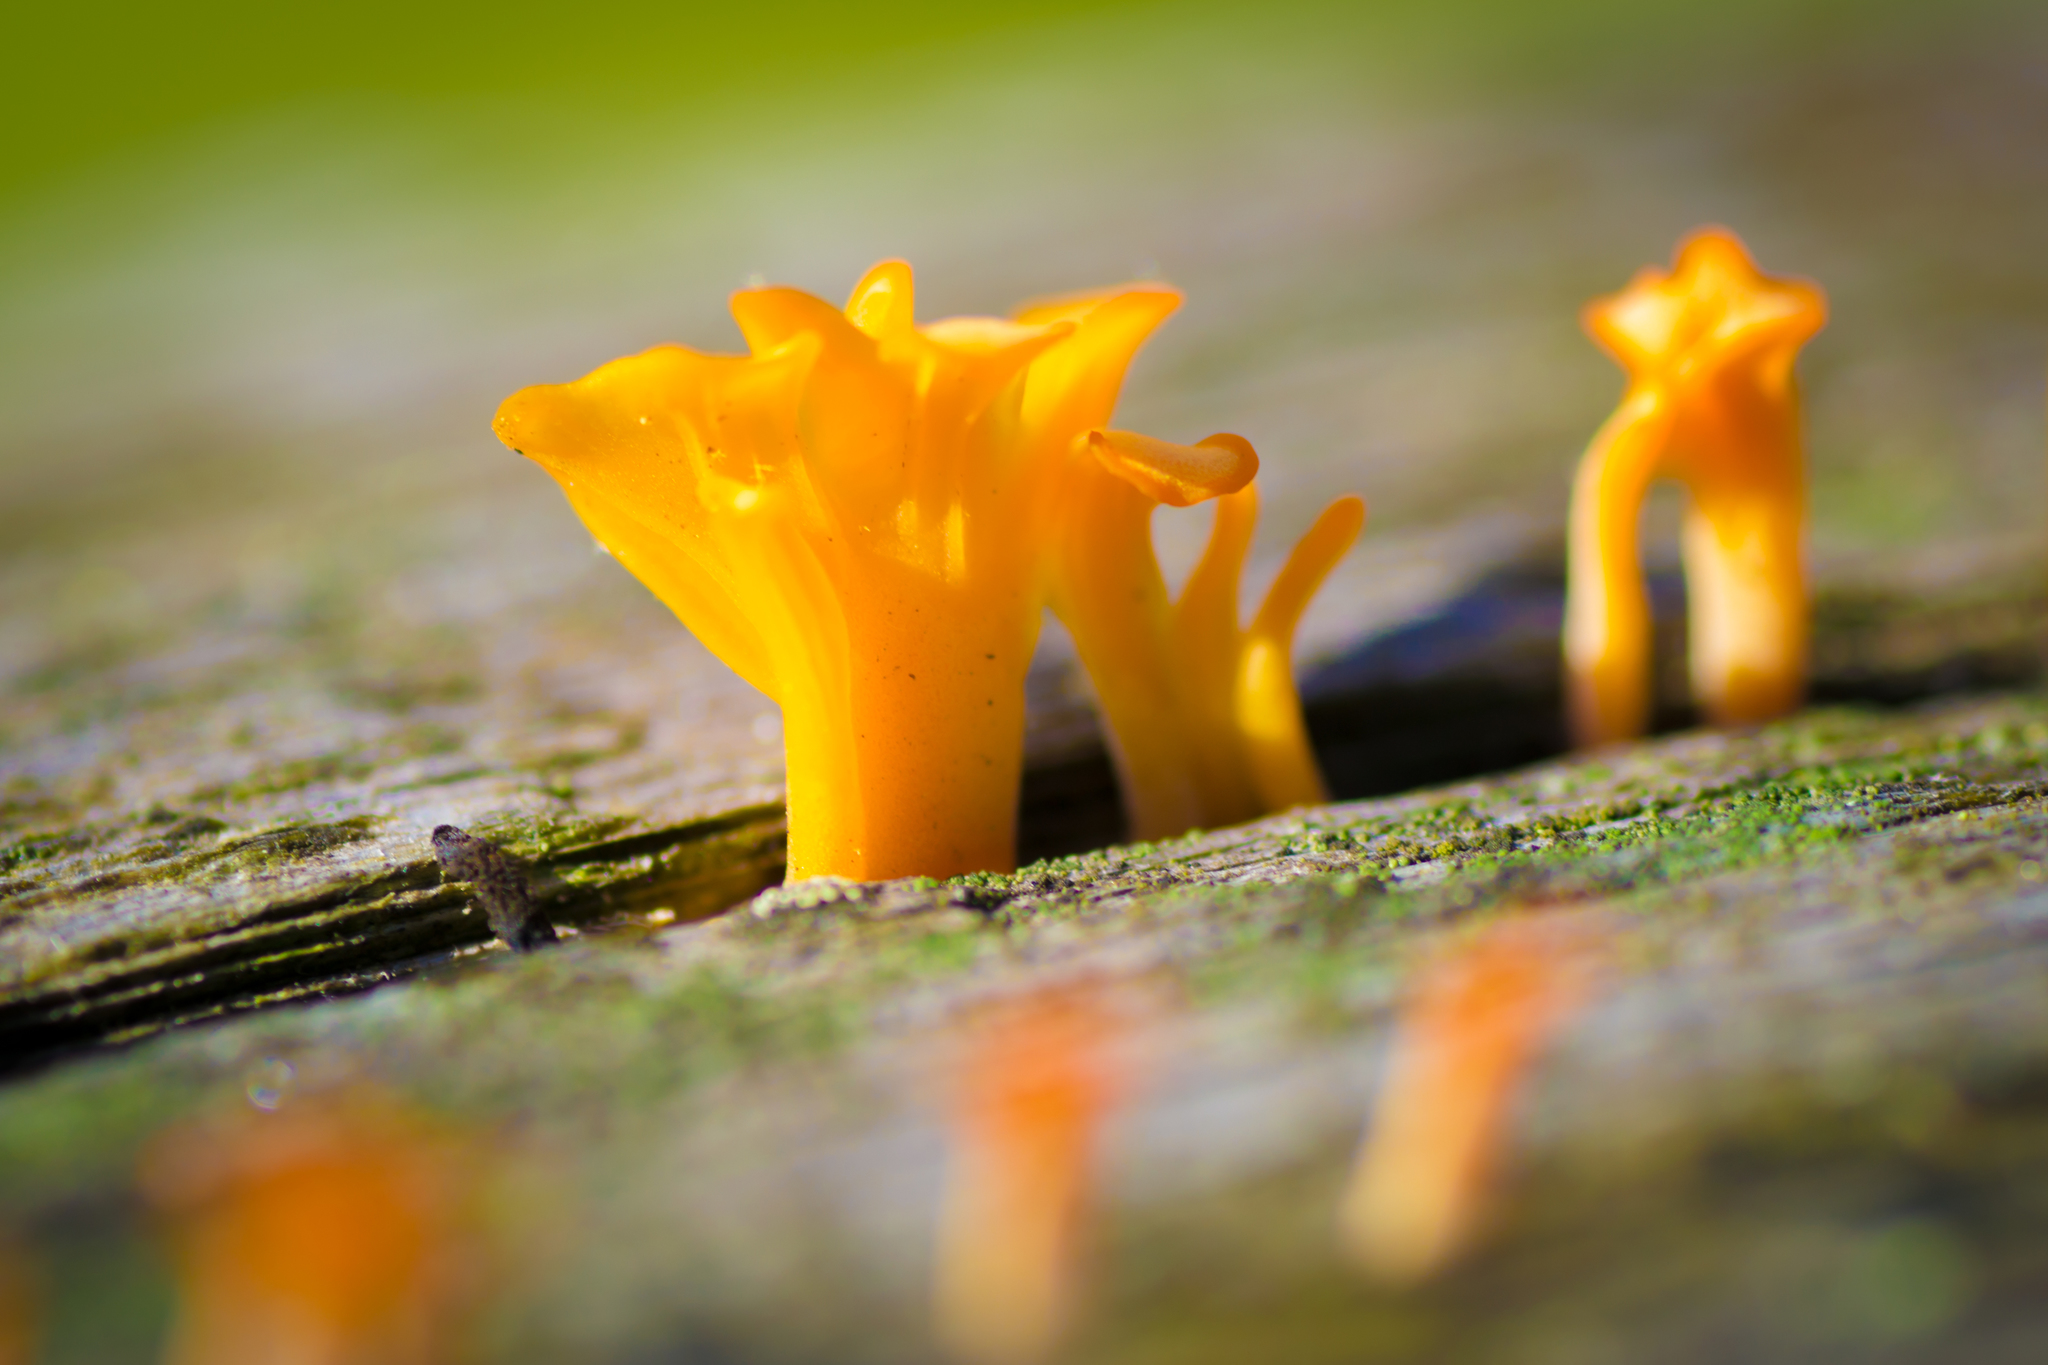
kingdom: Fungi
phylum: Basidiomycota
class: Dacrymycetes
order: Dacrymycetales
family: Dacrymycetaceae
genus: Dacrymyces
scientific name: Dacrymyces spathularius
